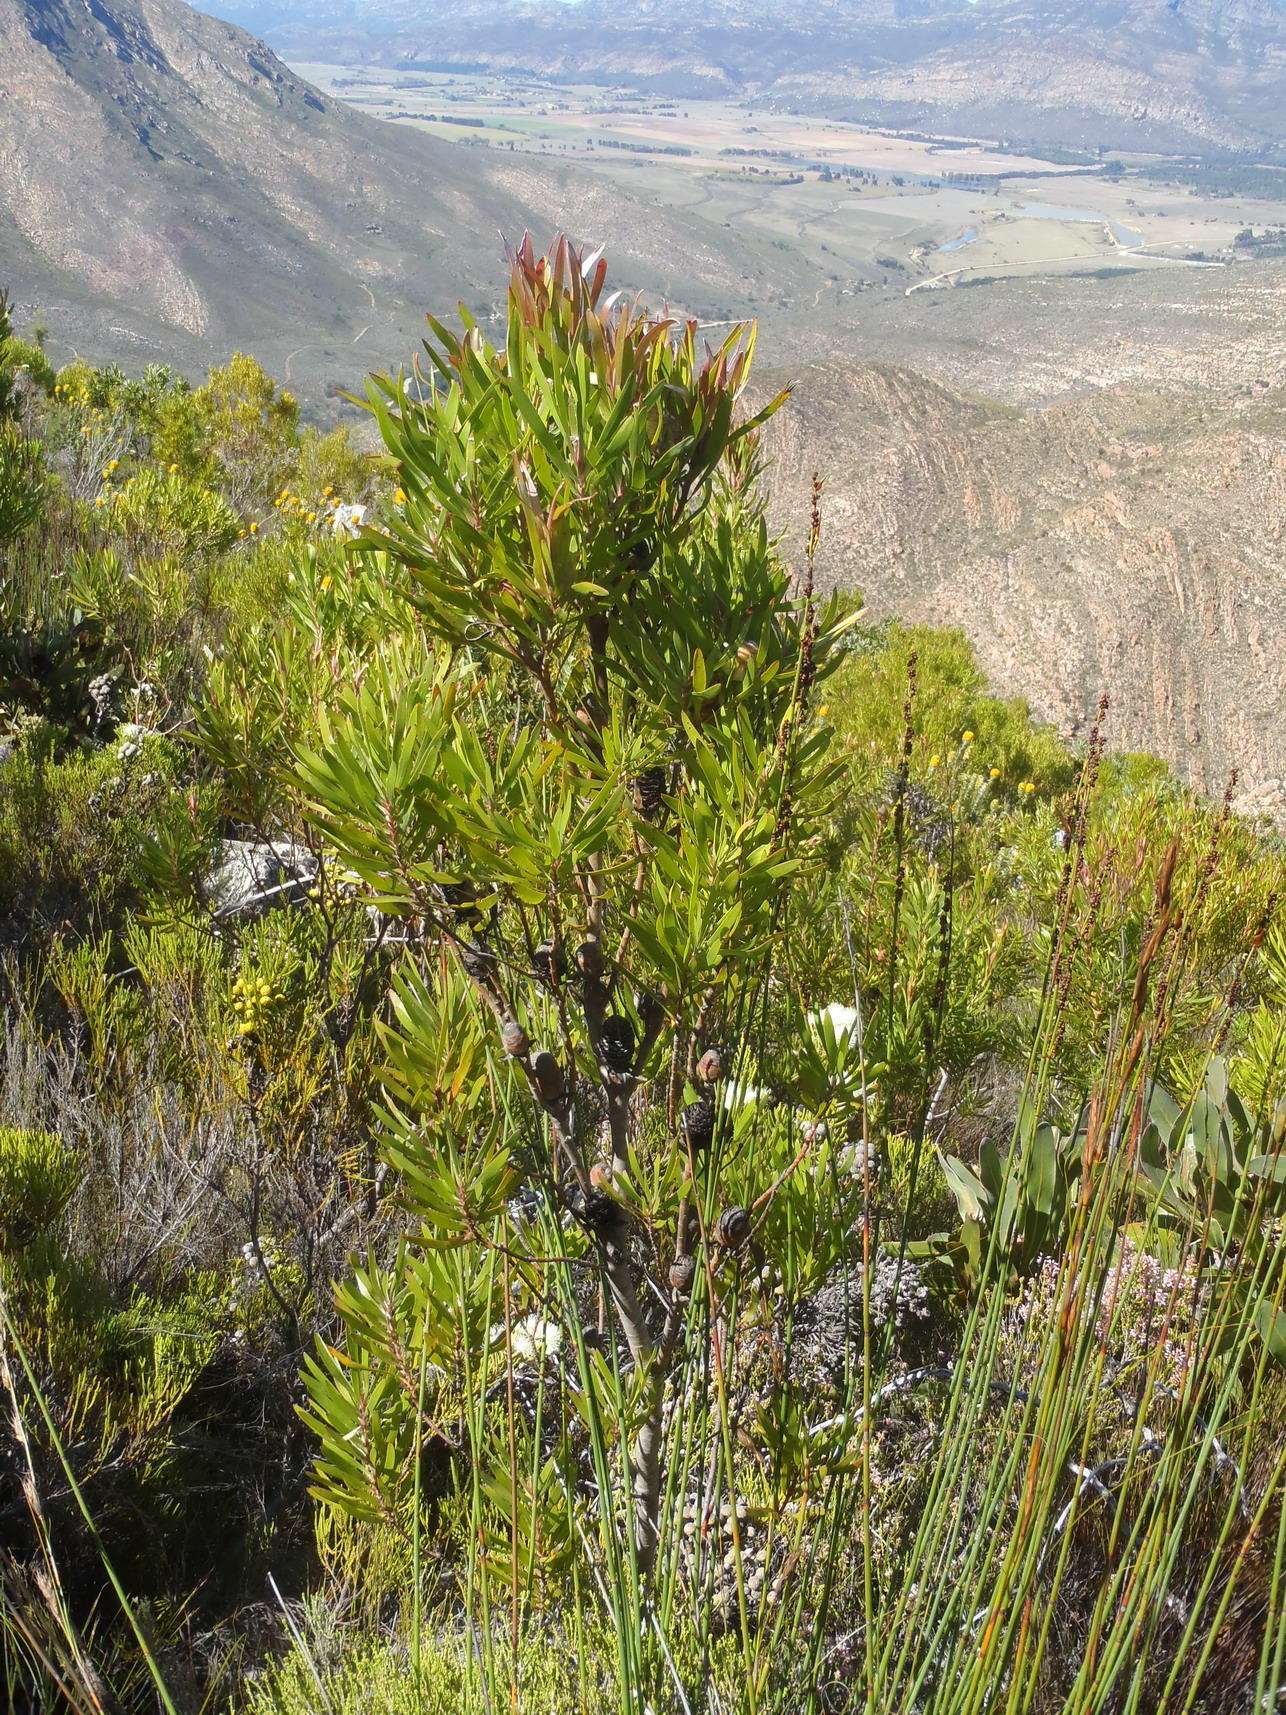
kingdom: Plantae
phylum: Tracheophyta
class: Magnoliopsida
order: Proteales
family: Proteaceae
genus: Leucadendron
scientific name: Leucadendron eucalyptifolium
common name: Gum-leaved conebush
